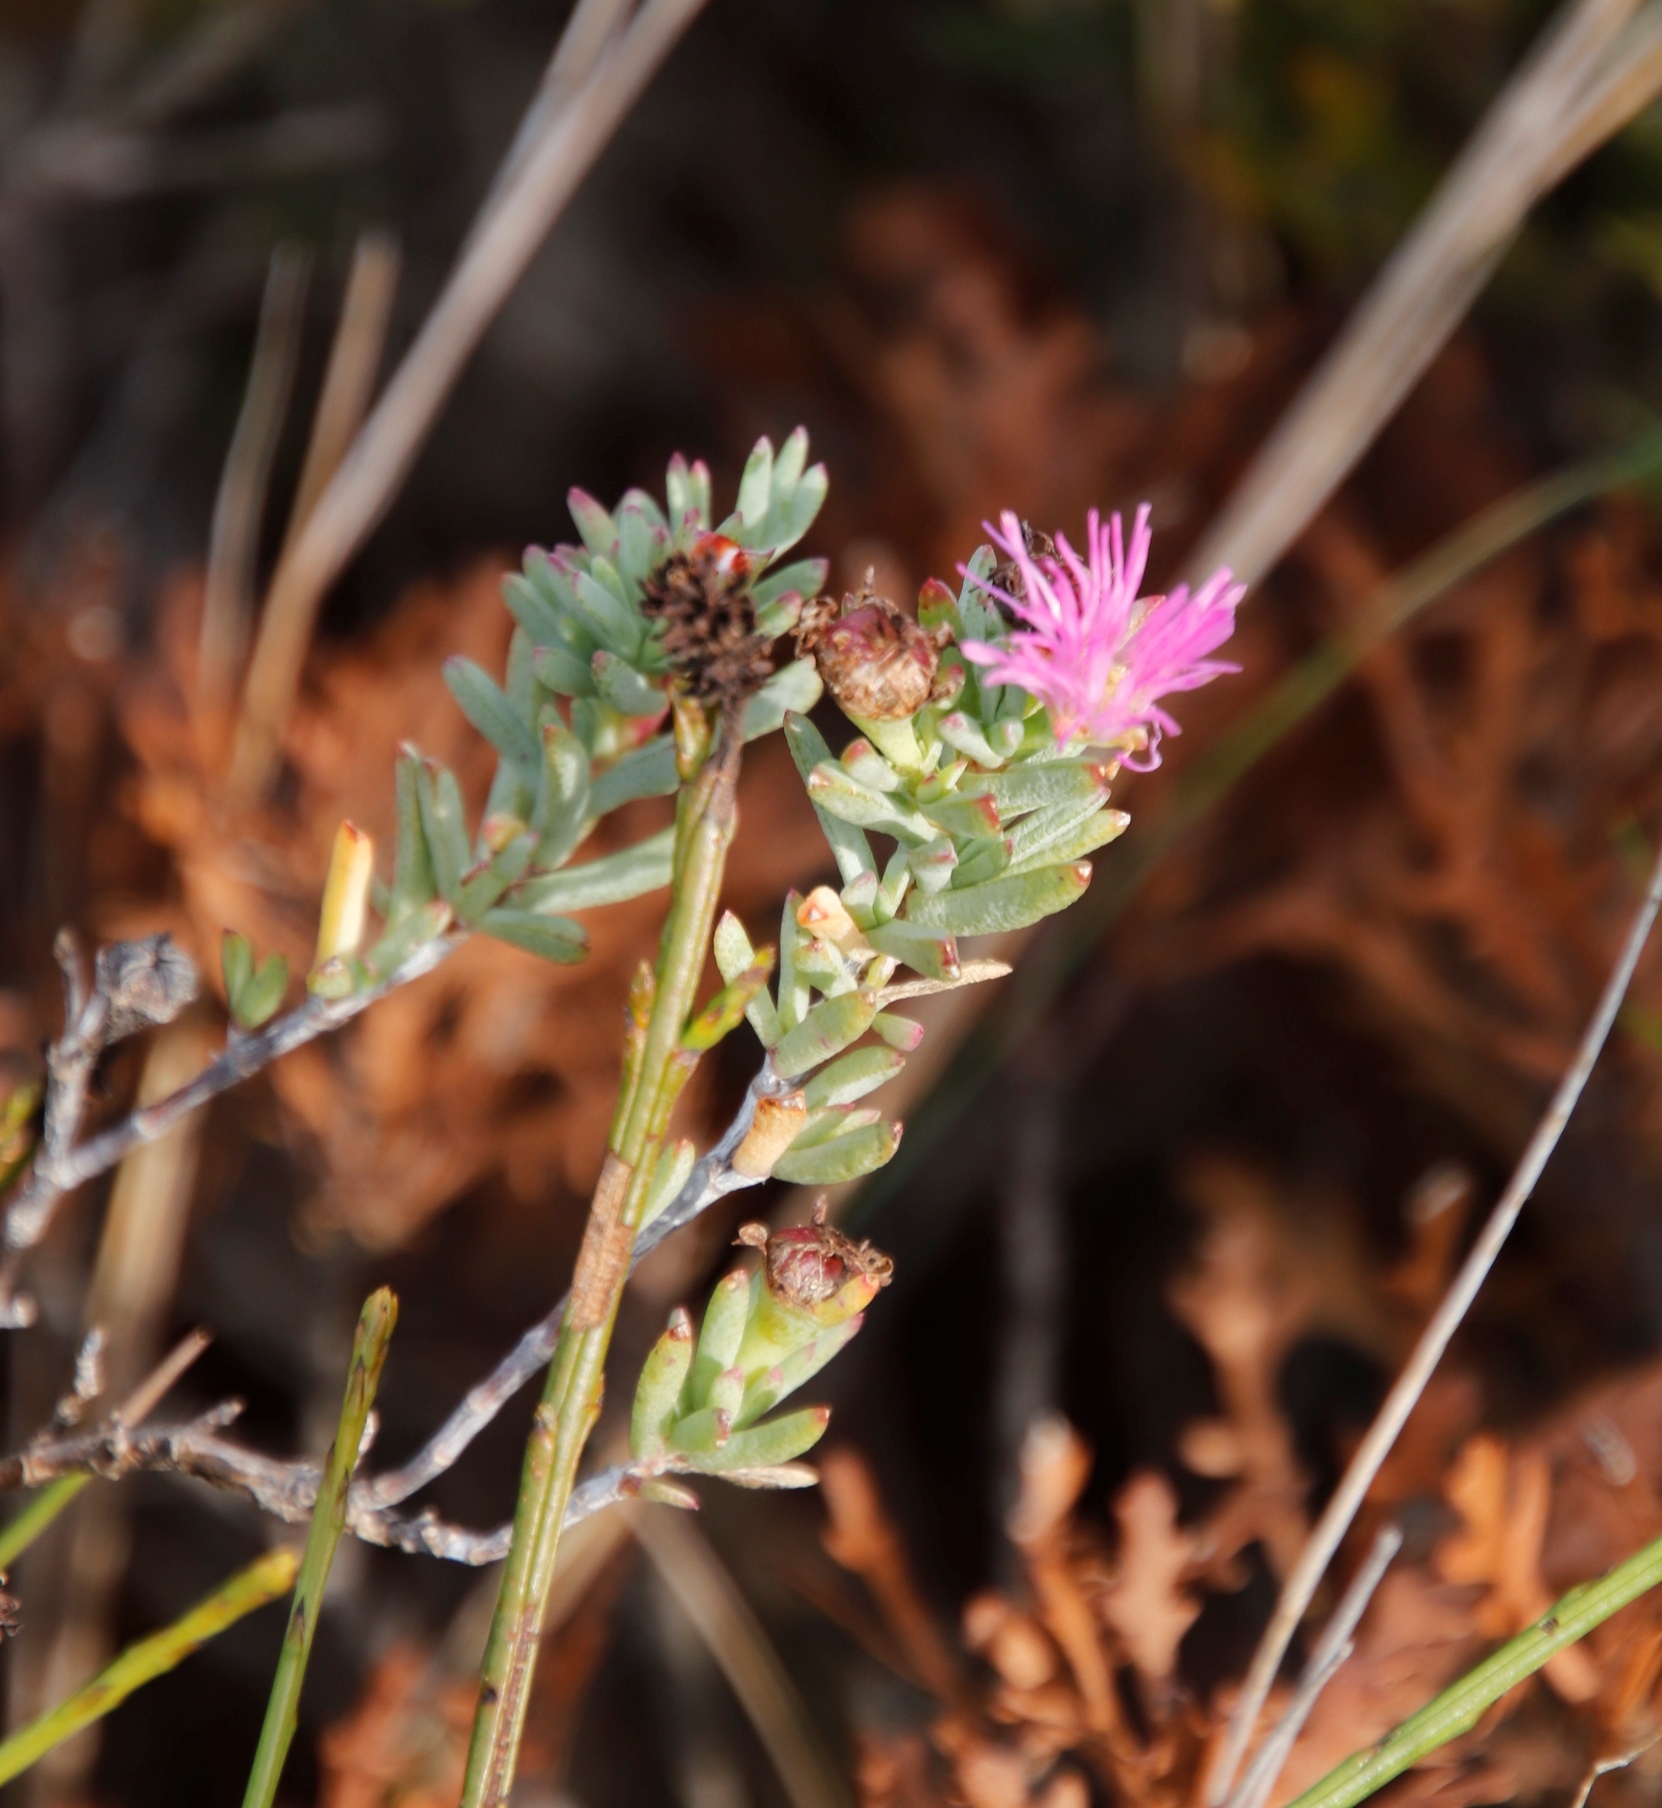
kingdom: Plantae
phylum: Tracheophyta
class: Magnoliopsida
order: Caryophyllales
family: Aizoaceae
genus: Lampranthus
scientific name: Lampranthus glomeratus
